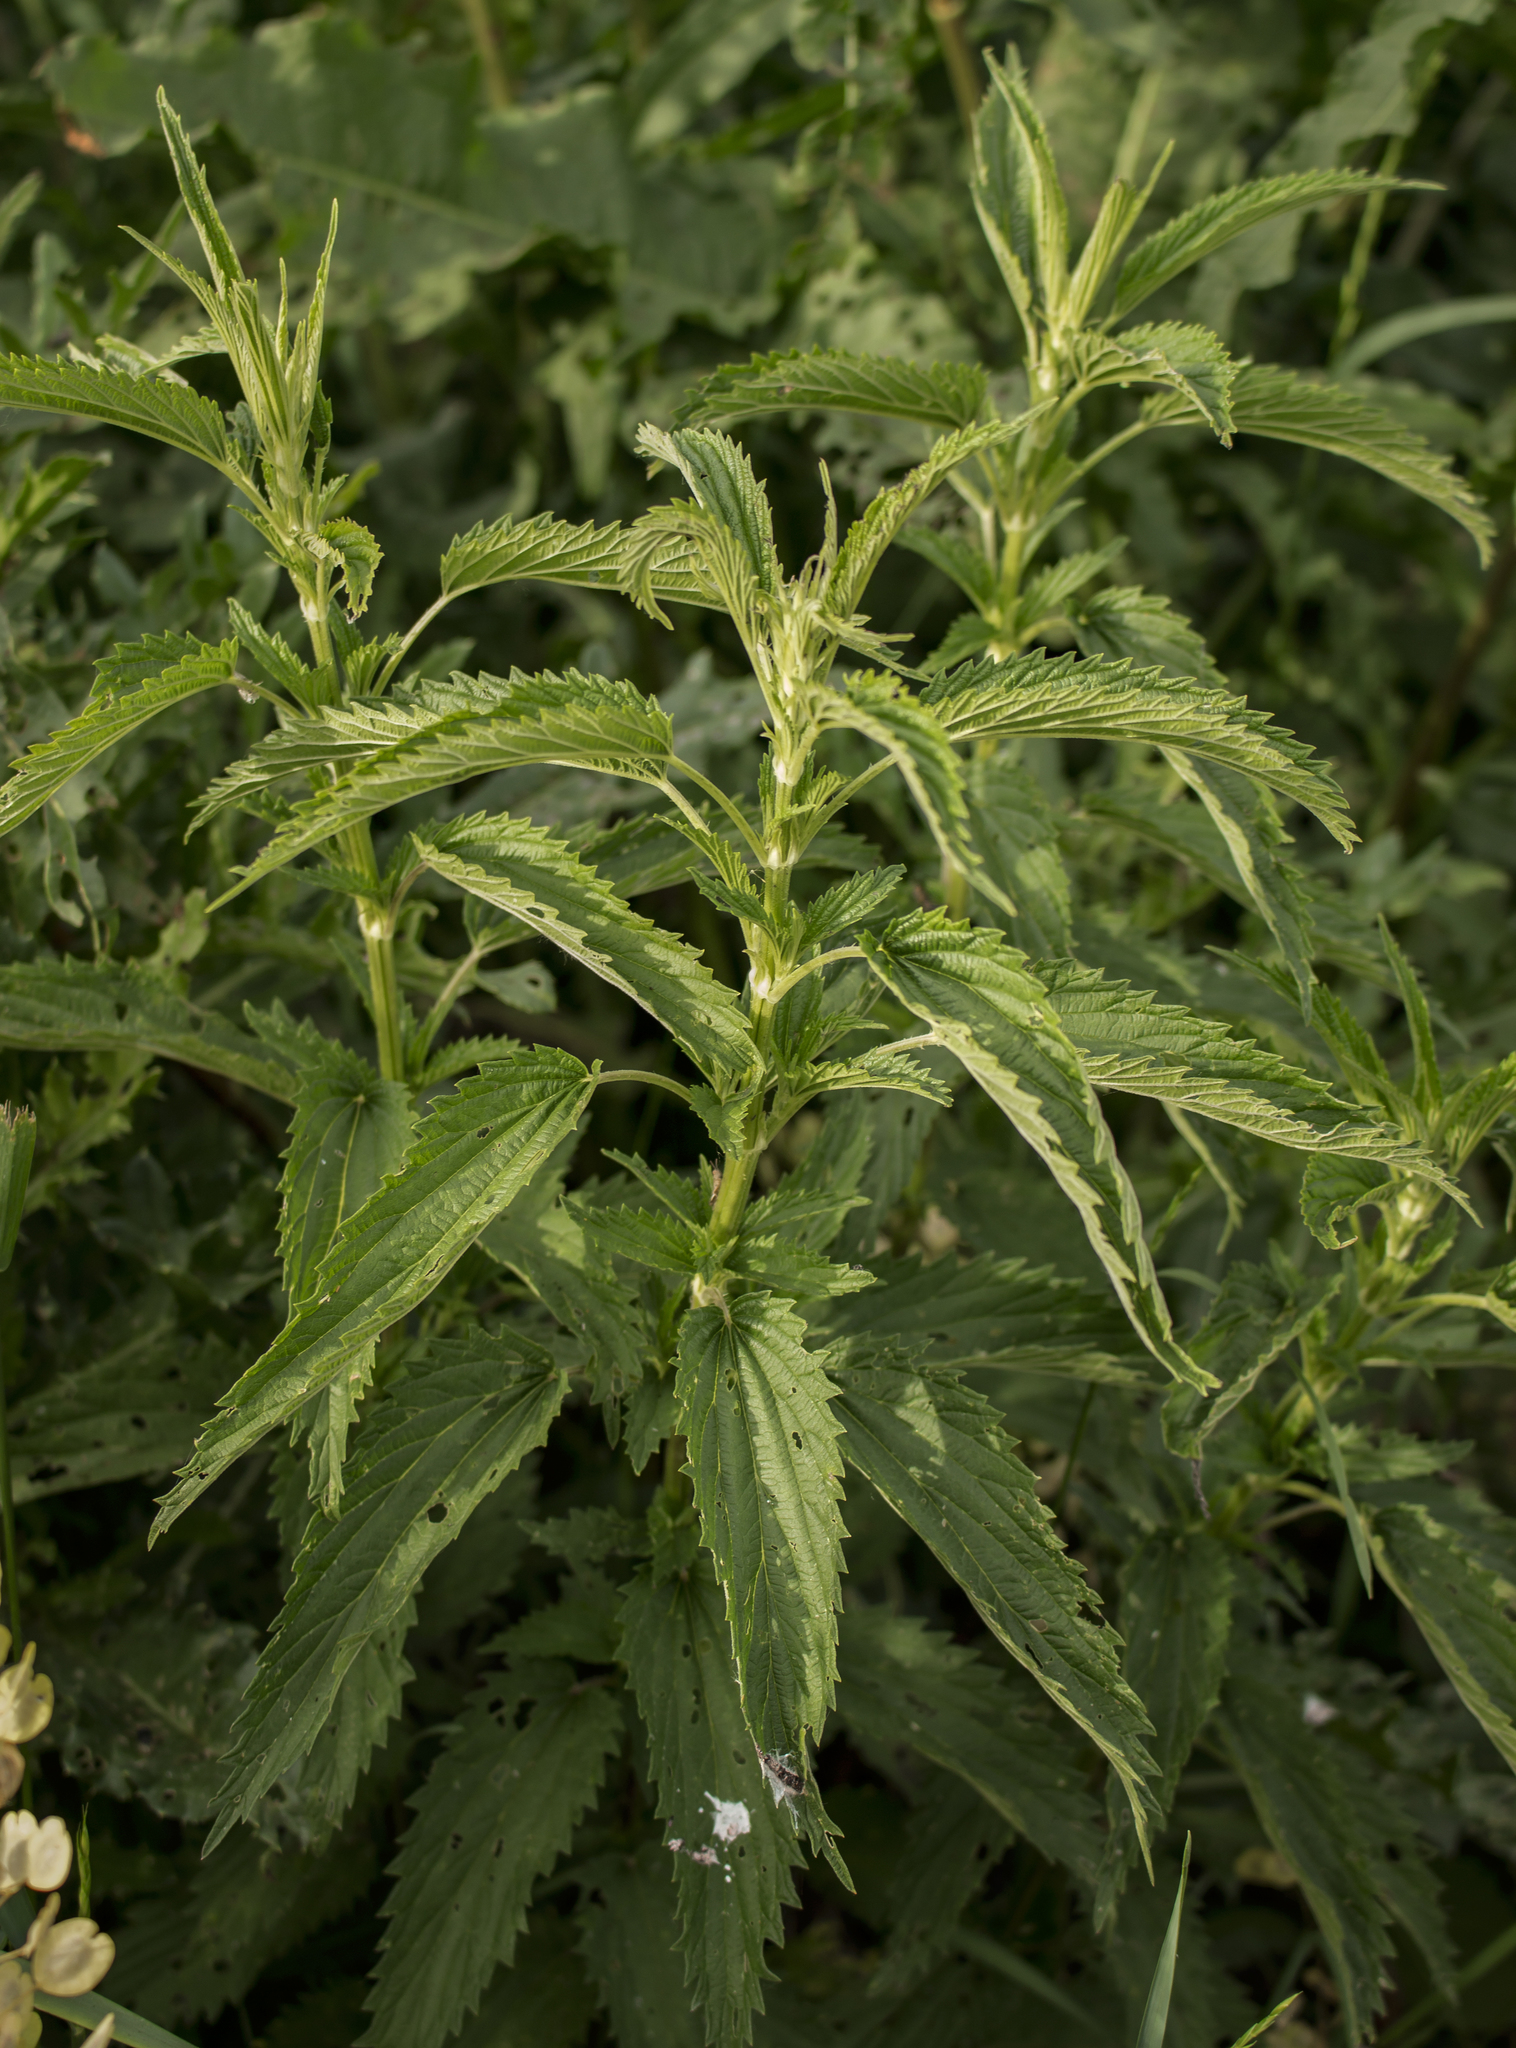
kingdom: Plantae
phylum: Tracheophyta
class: Magnoliopsida
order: Rosales
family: Urticaceae
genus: Urtica
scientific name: Urtica dioica
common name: Common nettle
